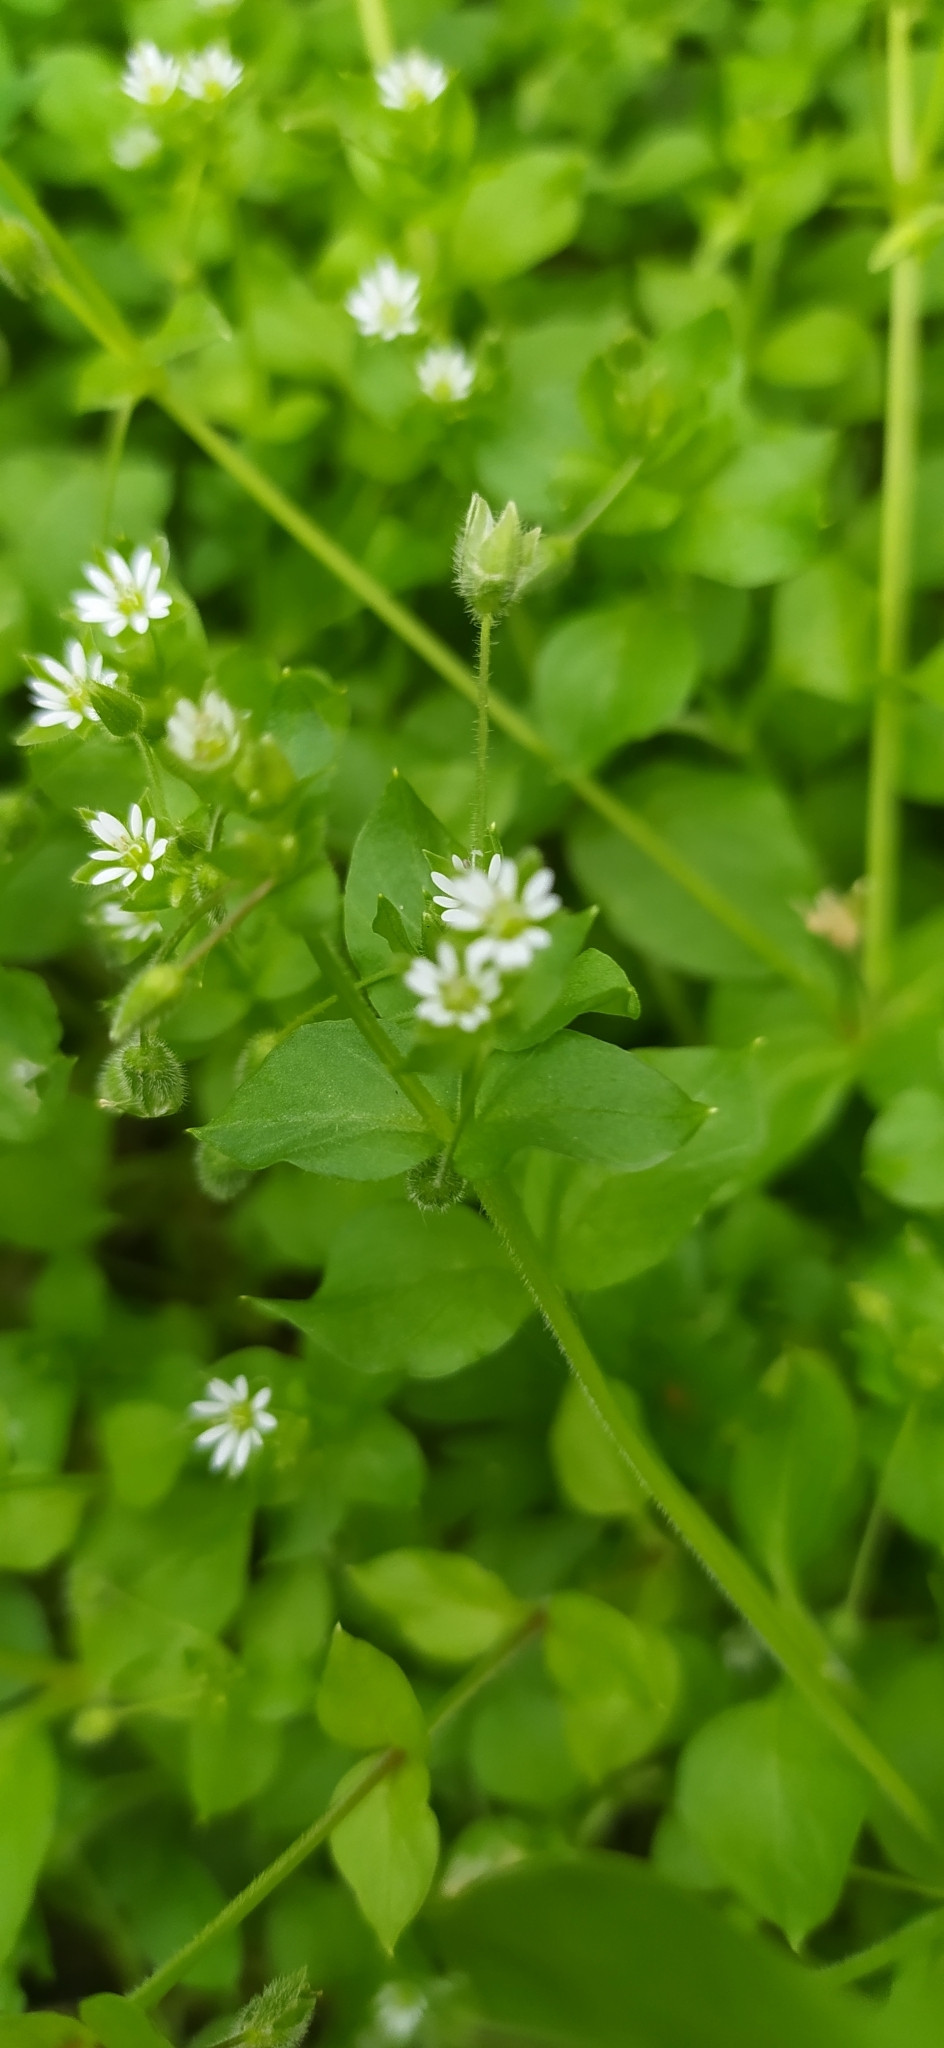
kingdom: Plantae
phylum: Tracheophyta
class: Magnoliopsida
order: Caryophyllales
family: Caryophyllaceae
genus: Stellaria
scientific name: Stellaria media
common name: Common chickweed
